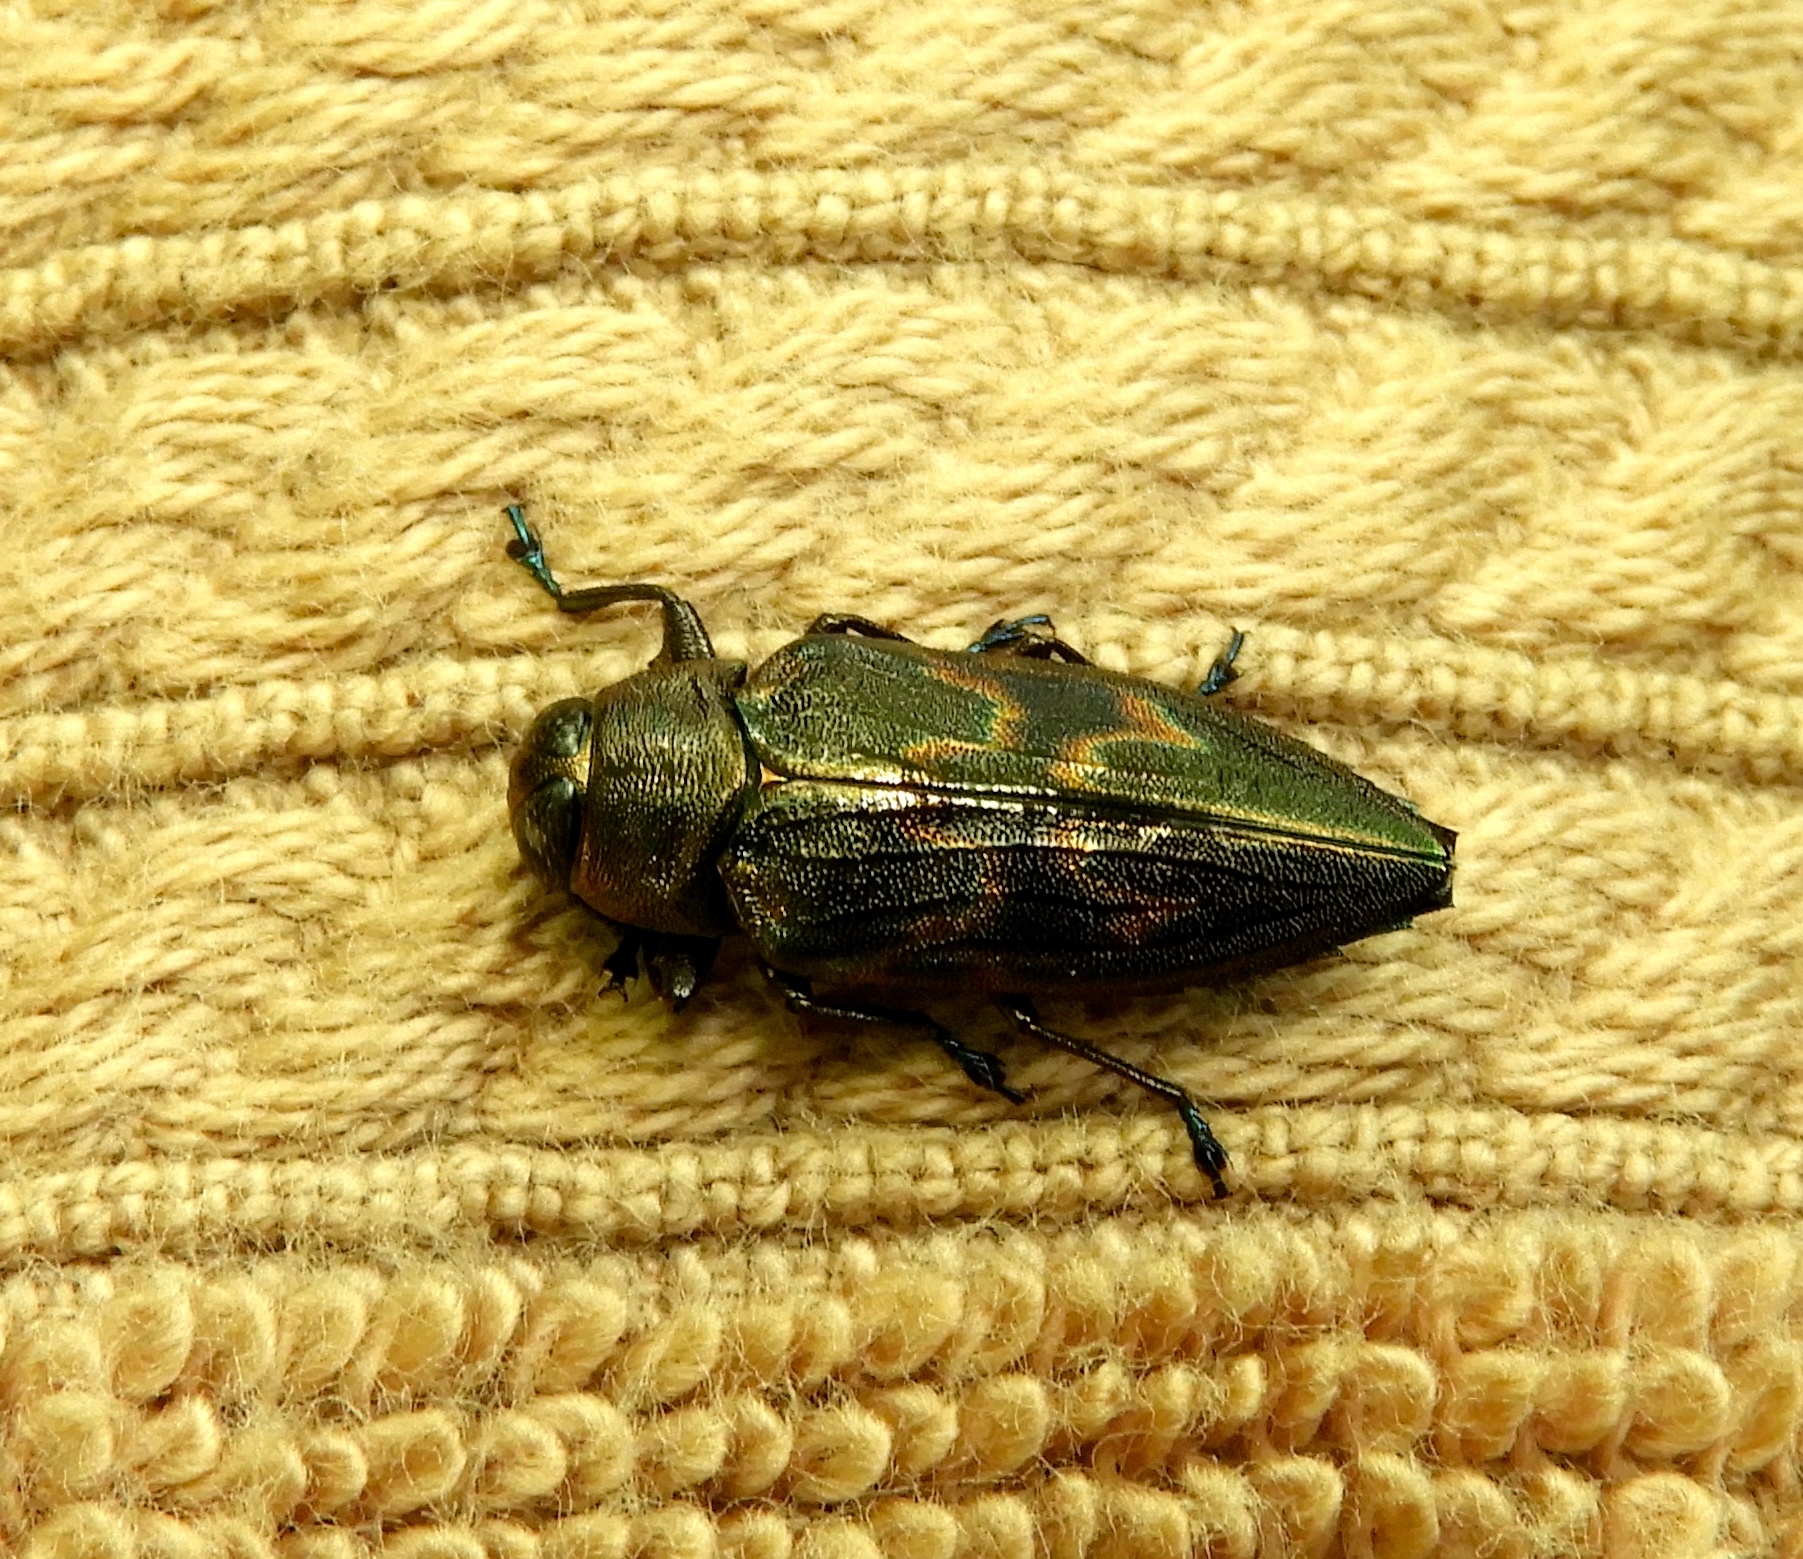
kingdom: Animalia
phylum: Arthropoda
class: Insecta
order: Coleoptera
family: Buprestidae
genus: Actenodes
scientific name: Actenodes calcaratus
